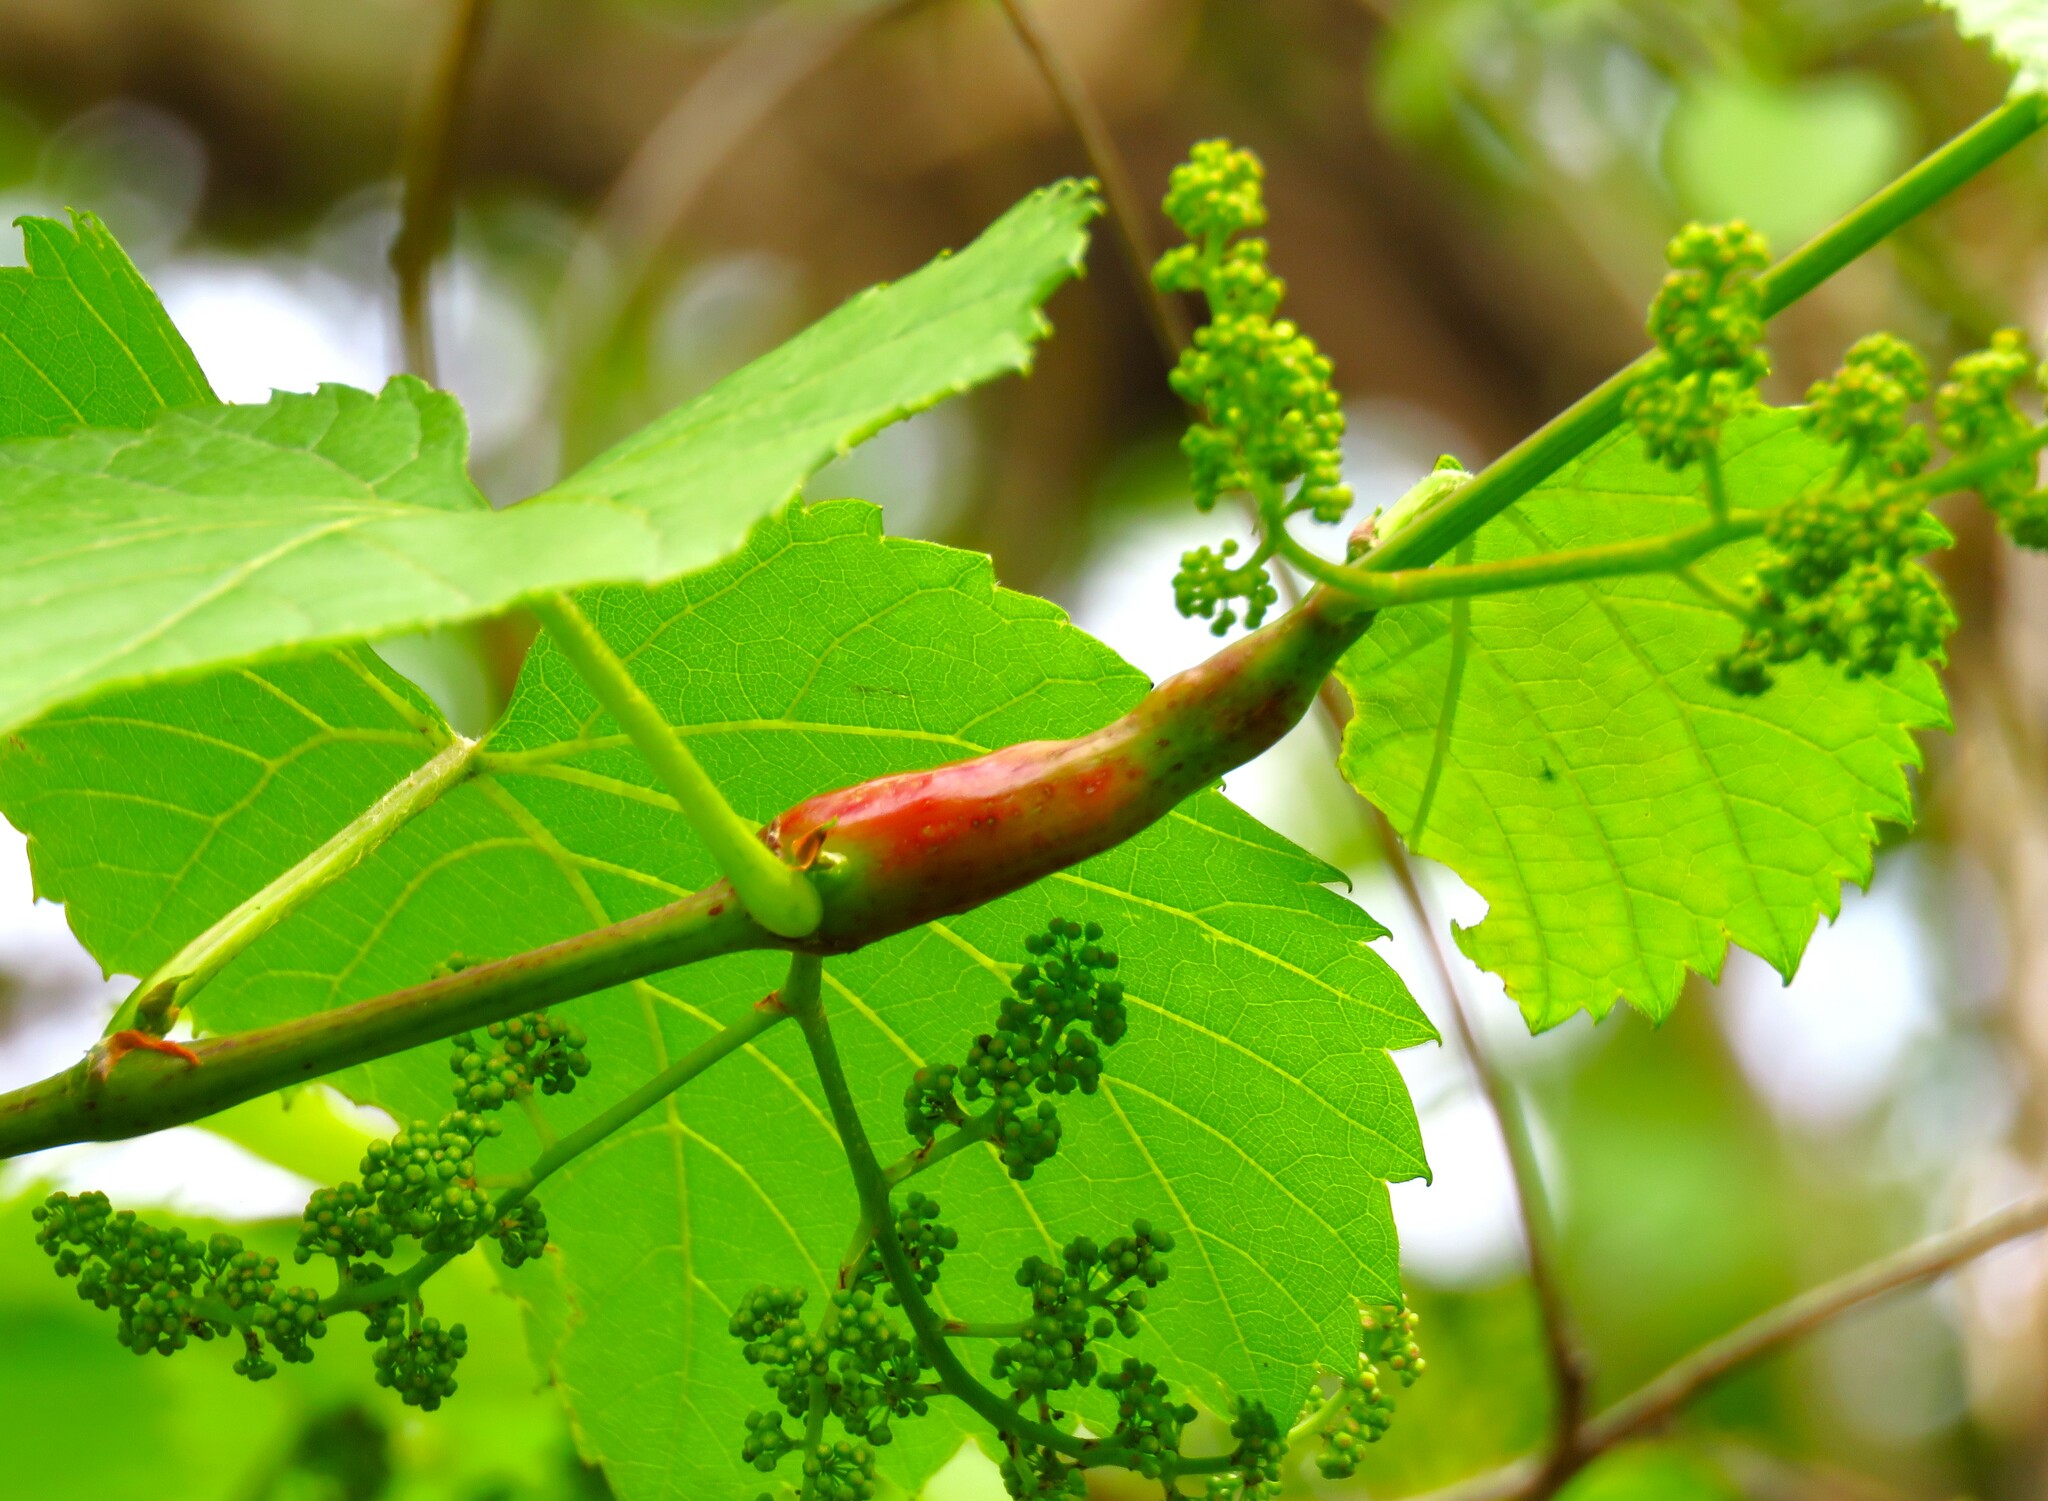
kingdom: Animalia
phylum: Arthropoda
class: Insecta
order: Diptera
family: Cecidomyiidae
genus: Vitisiella
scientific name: Vitisiella brevicauda
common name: Grape tumid gallmaker midge
